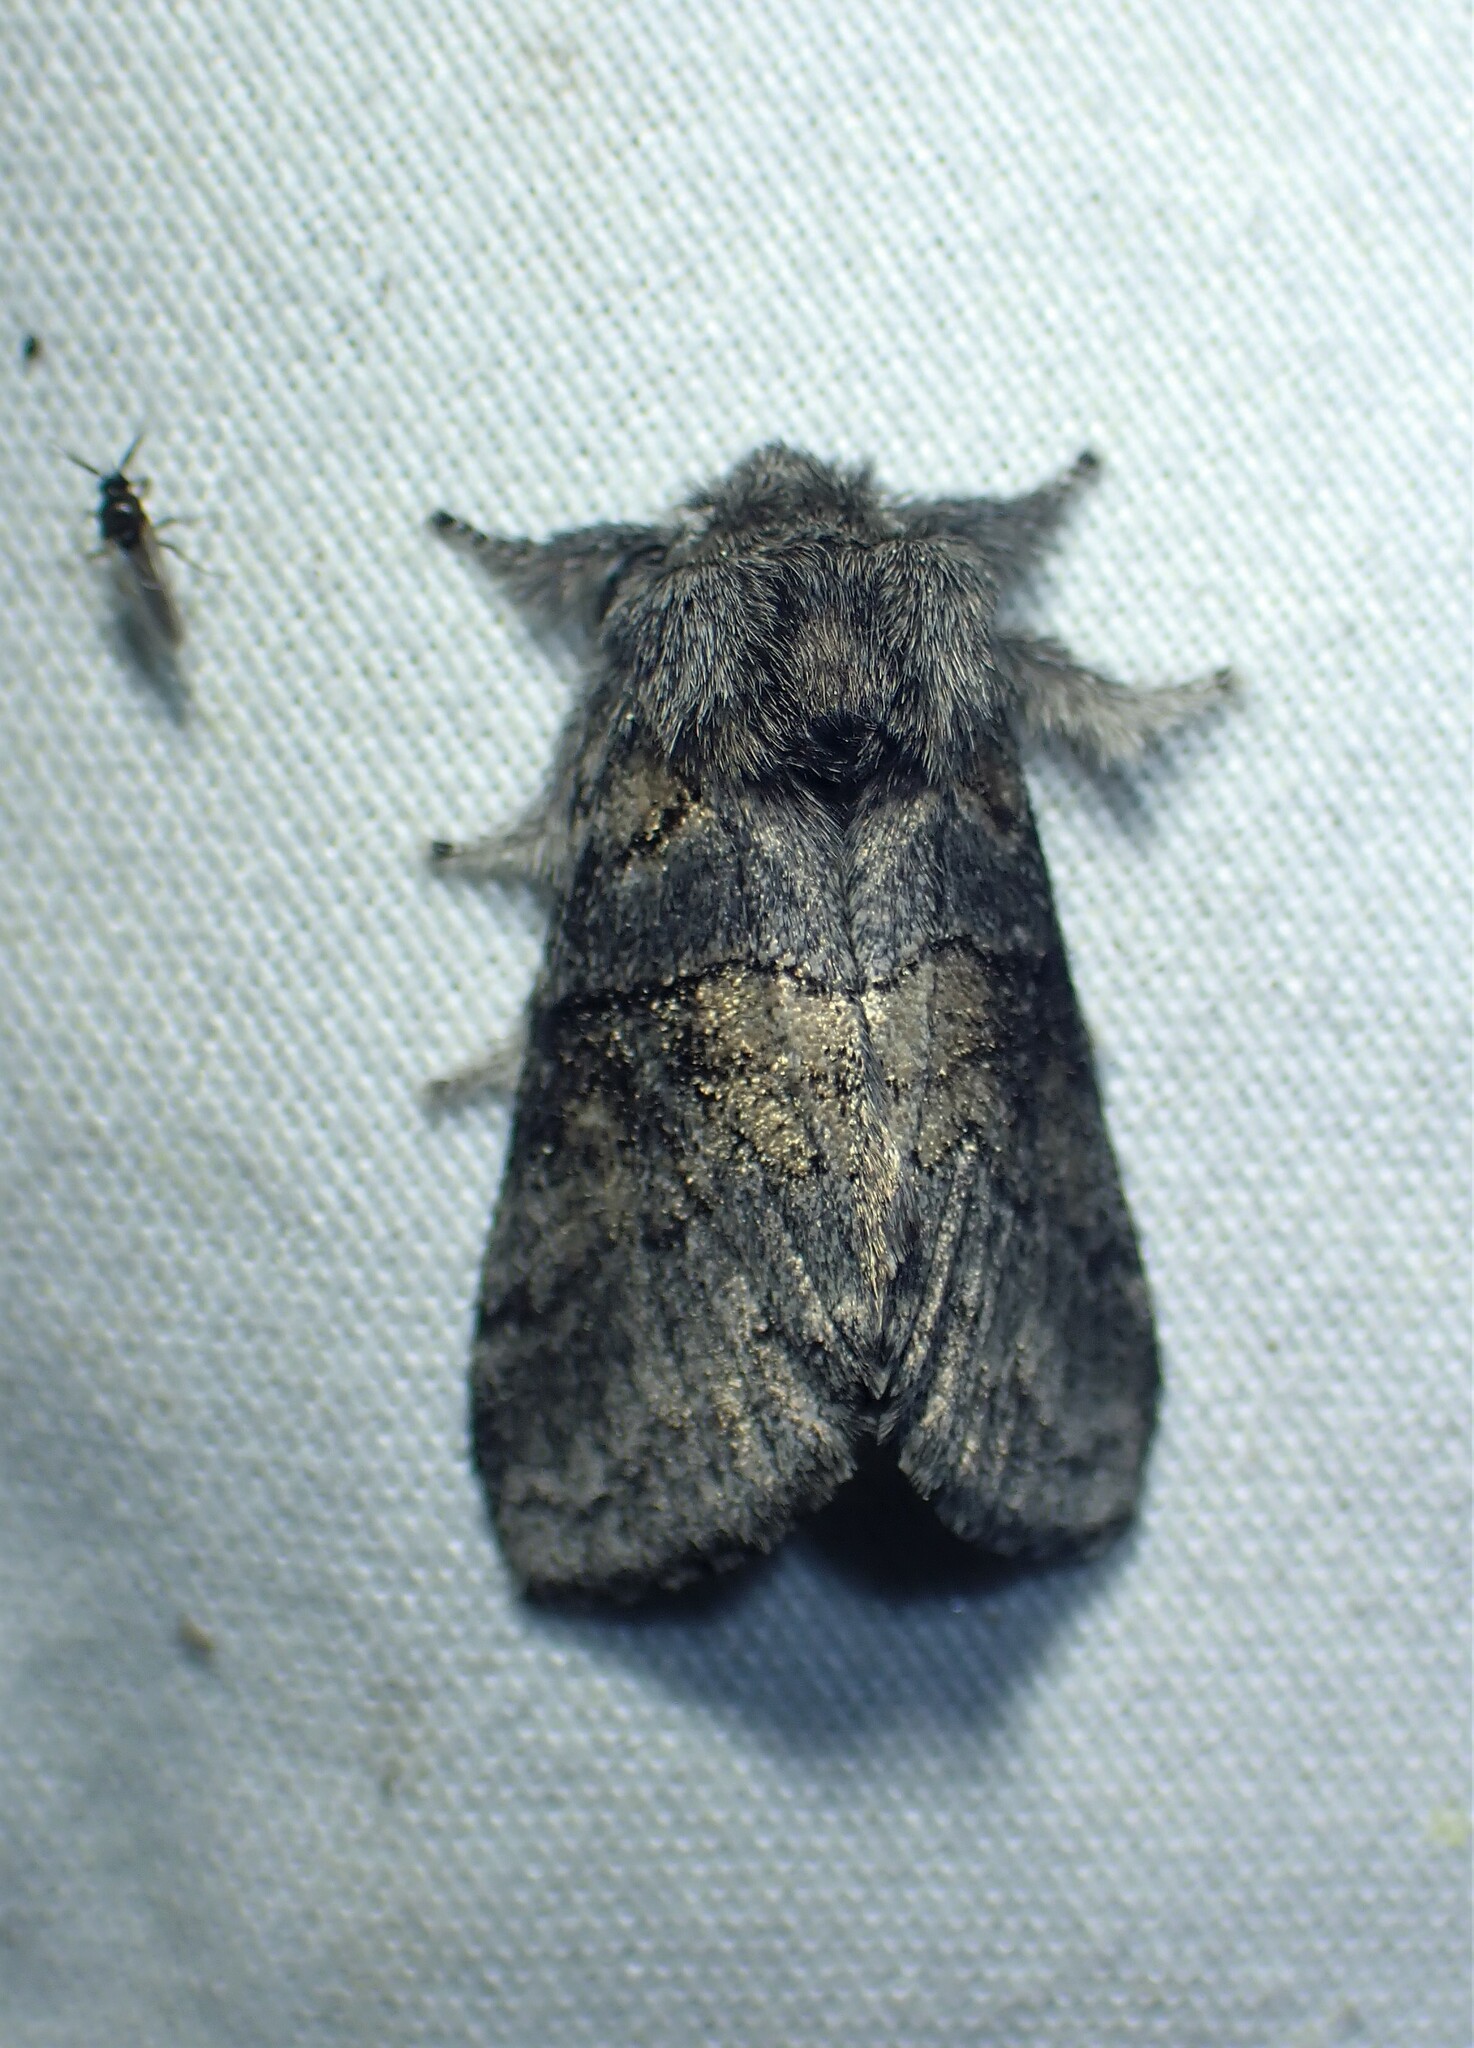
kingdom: Animalia
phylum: Arthropoda
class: Insecta
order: Lepidoptera
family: Notodontidae
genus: Gluphisia
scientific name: Gluphisia septentrionis
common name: Common gluphisia
